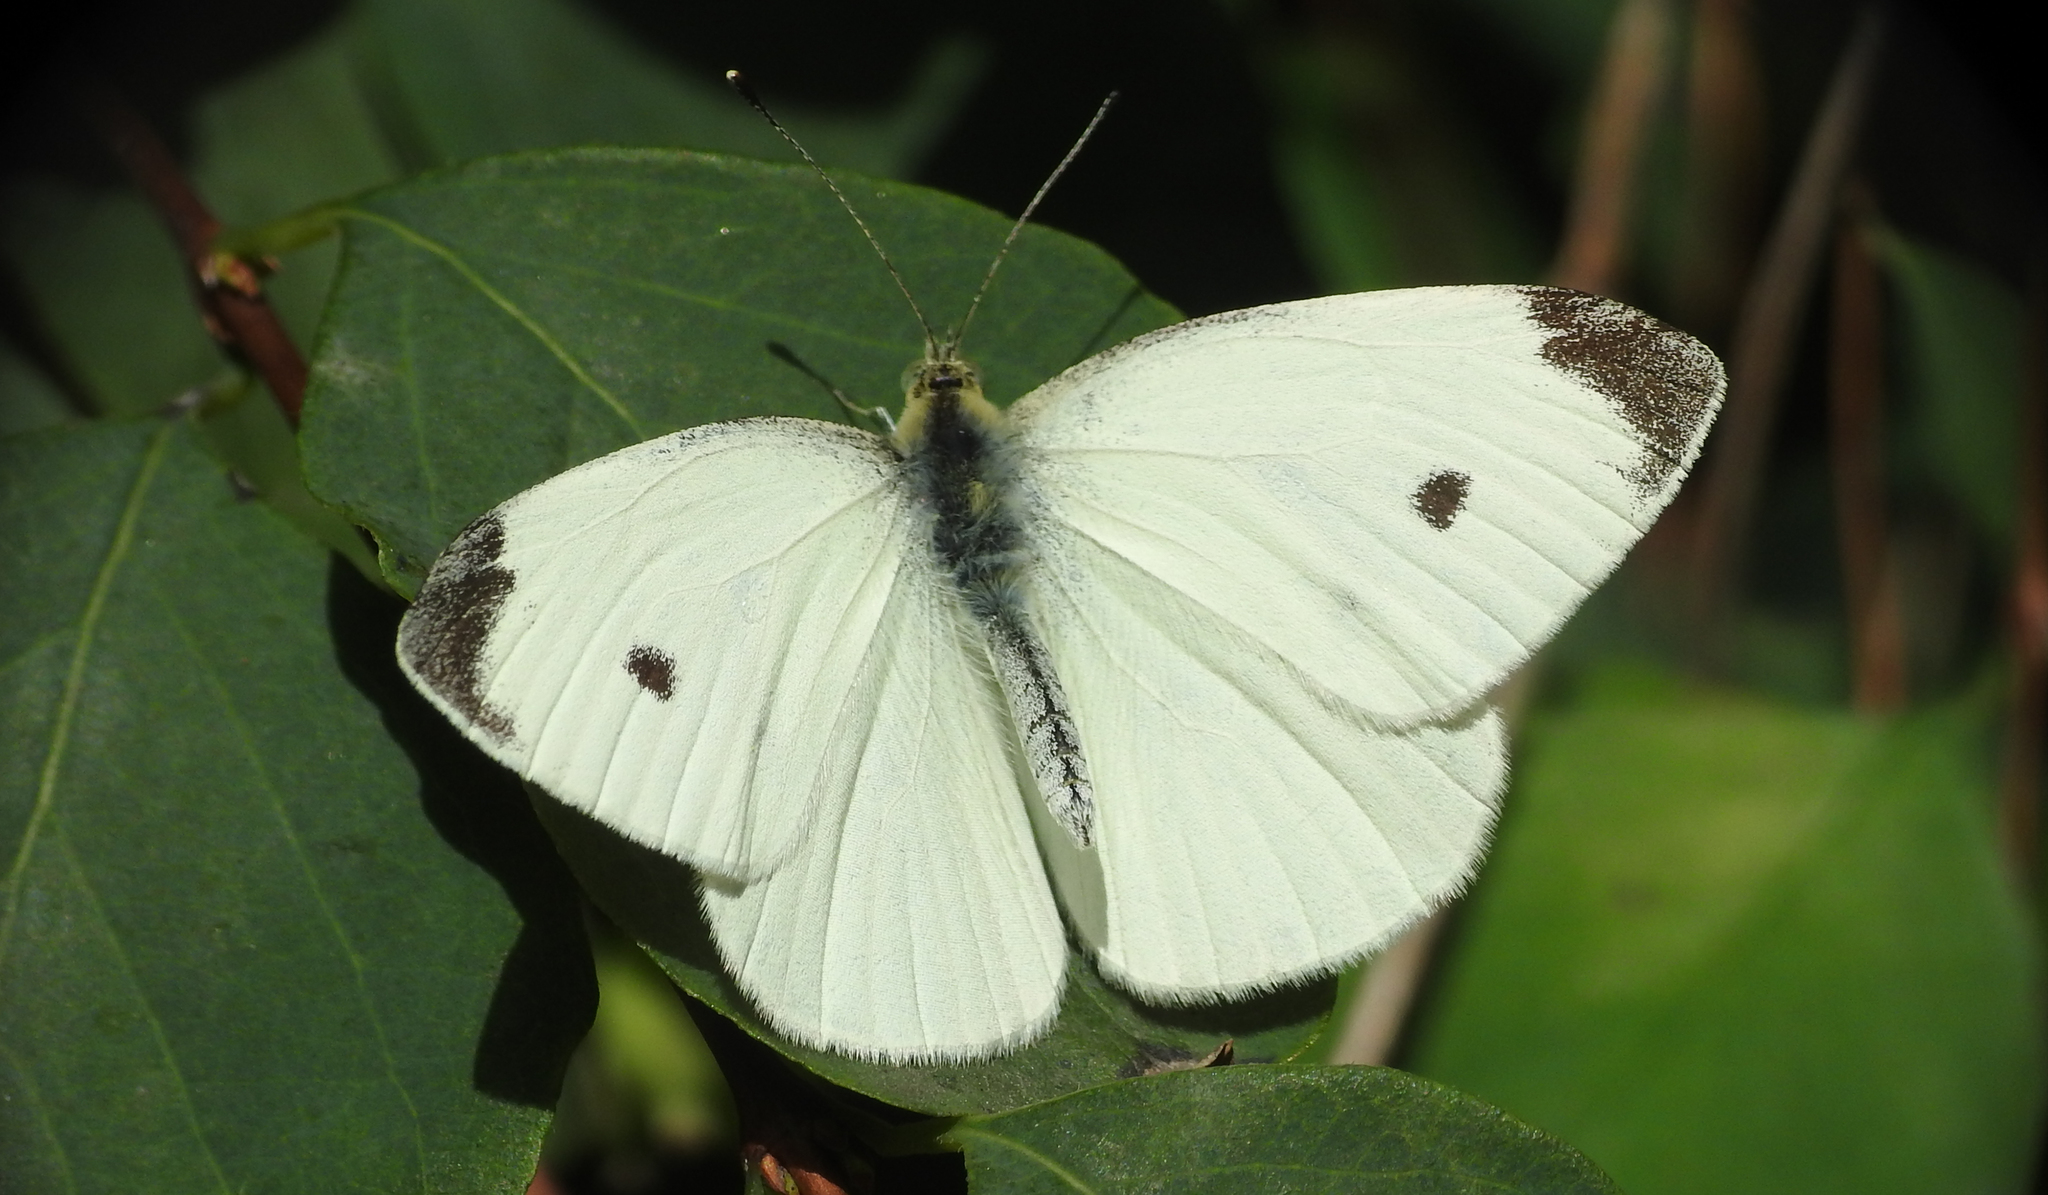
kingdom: Animalia
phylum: Arthropoda
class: Insecta
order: Lepidoptera
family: Pieridae
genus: Pieris
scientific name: Pieris rapae
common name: Small white
